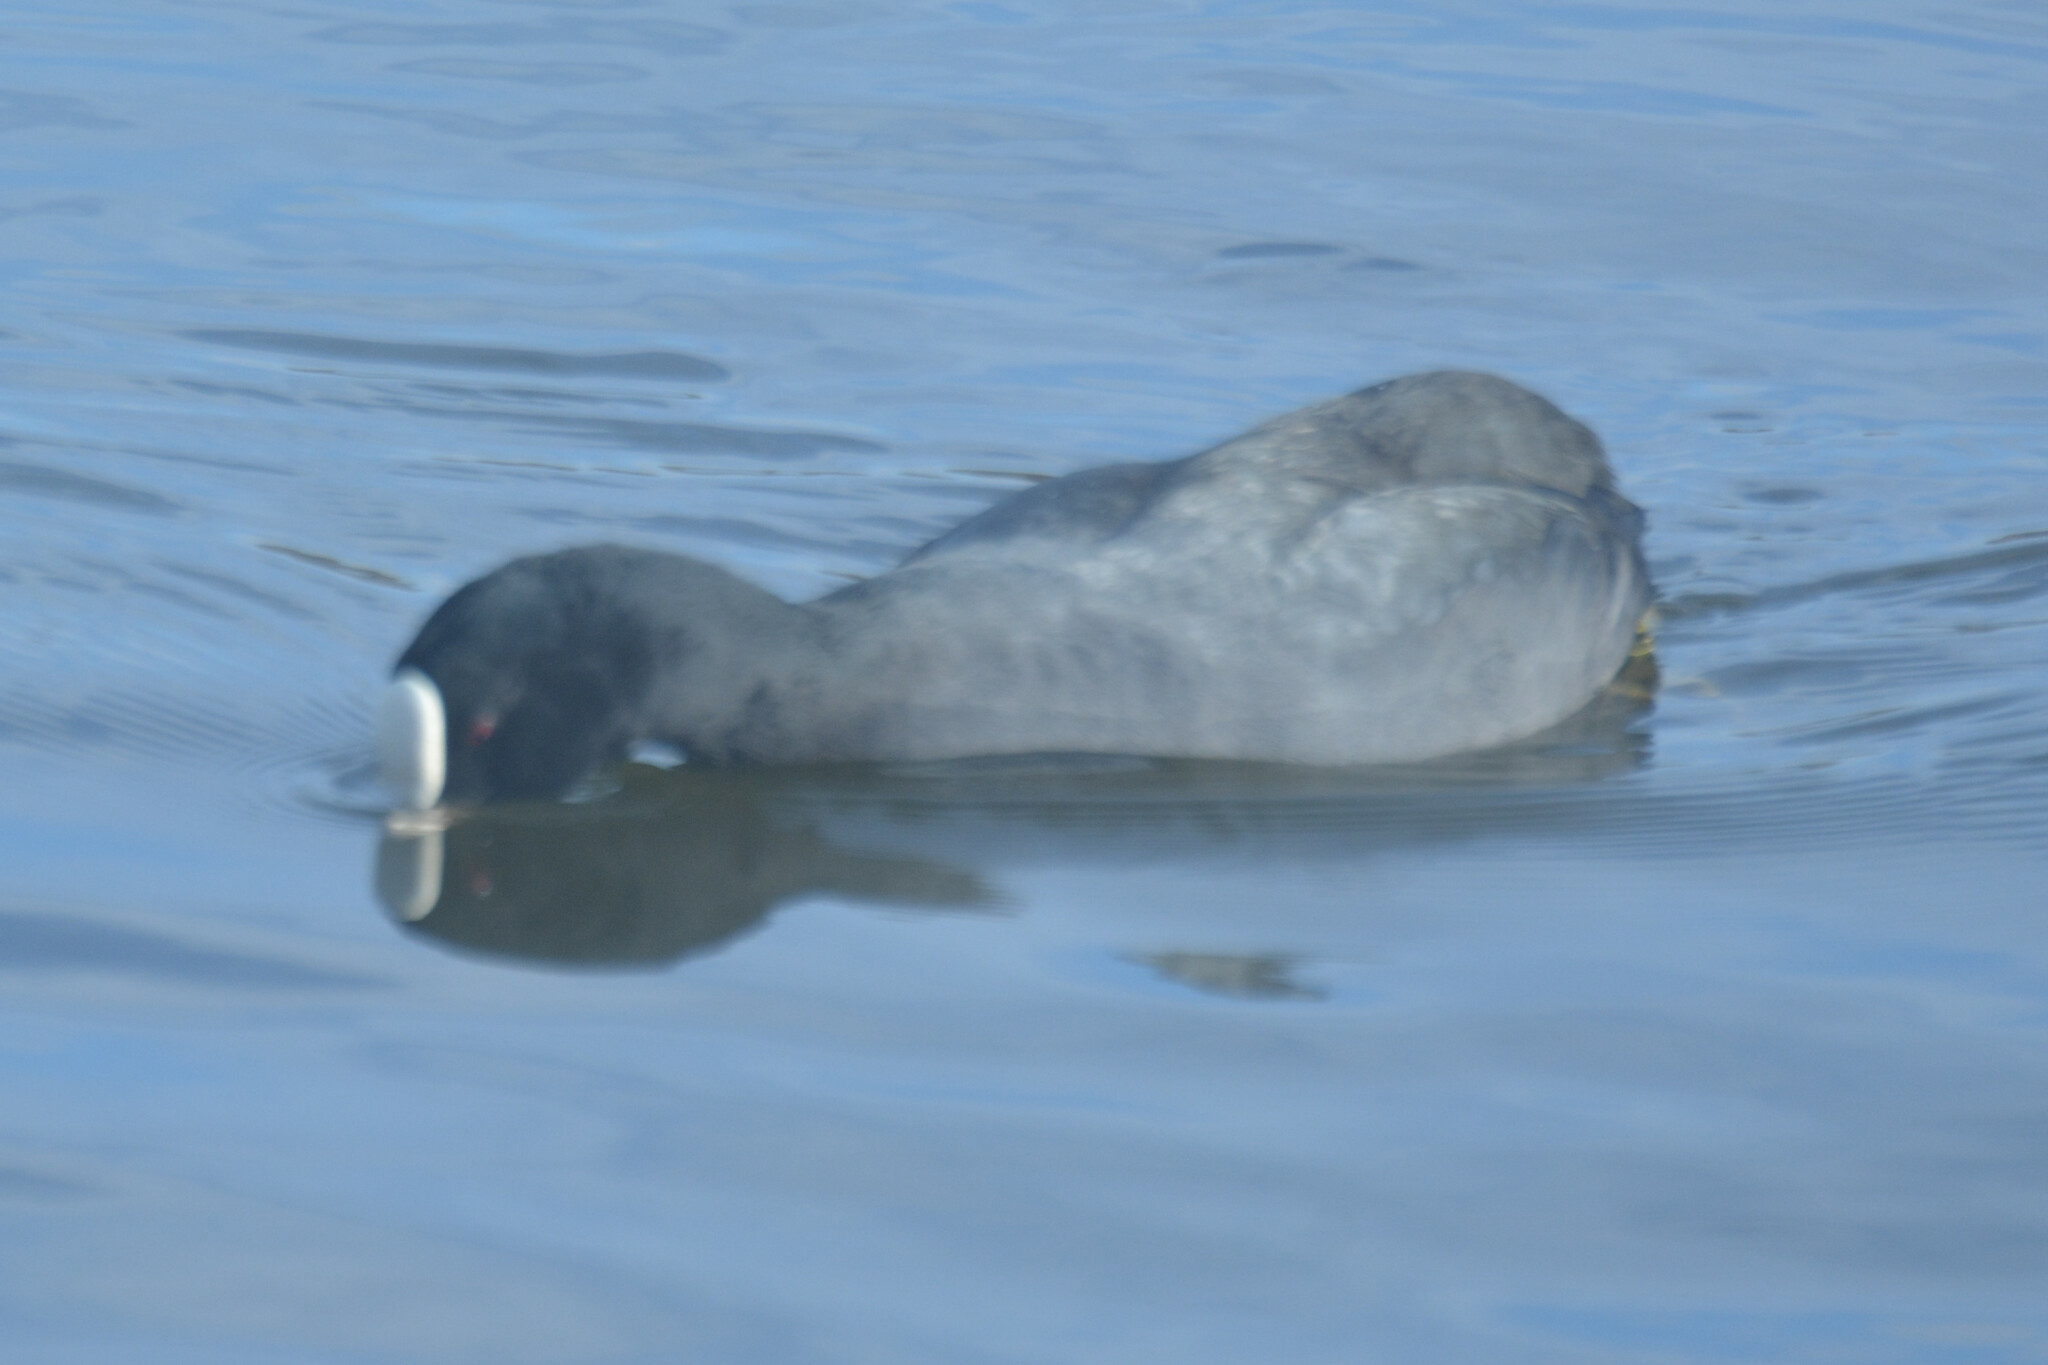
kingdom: Animalia
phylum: Chordata
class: Aves
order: Gruiformes
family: Rallidae
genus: Fulica
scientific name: Fulica atra
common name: Eurasian coot
